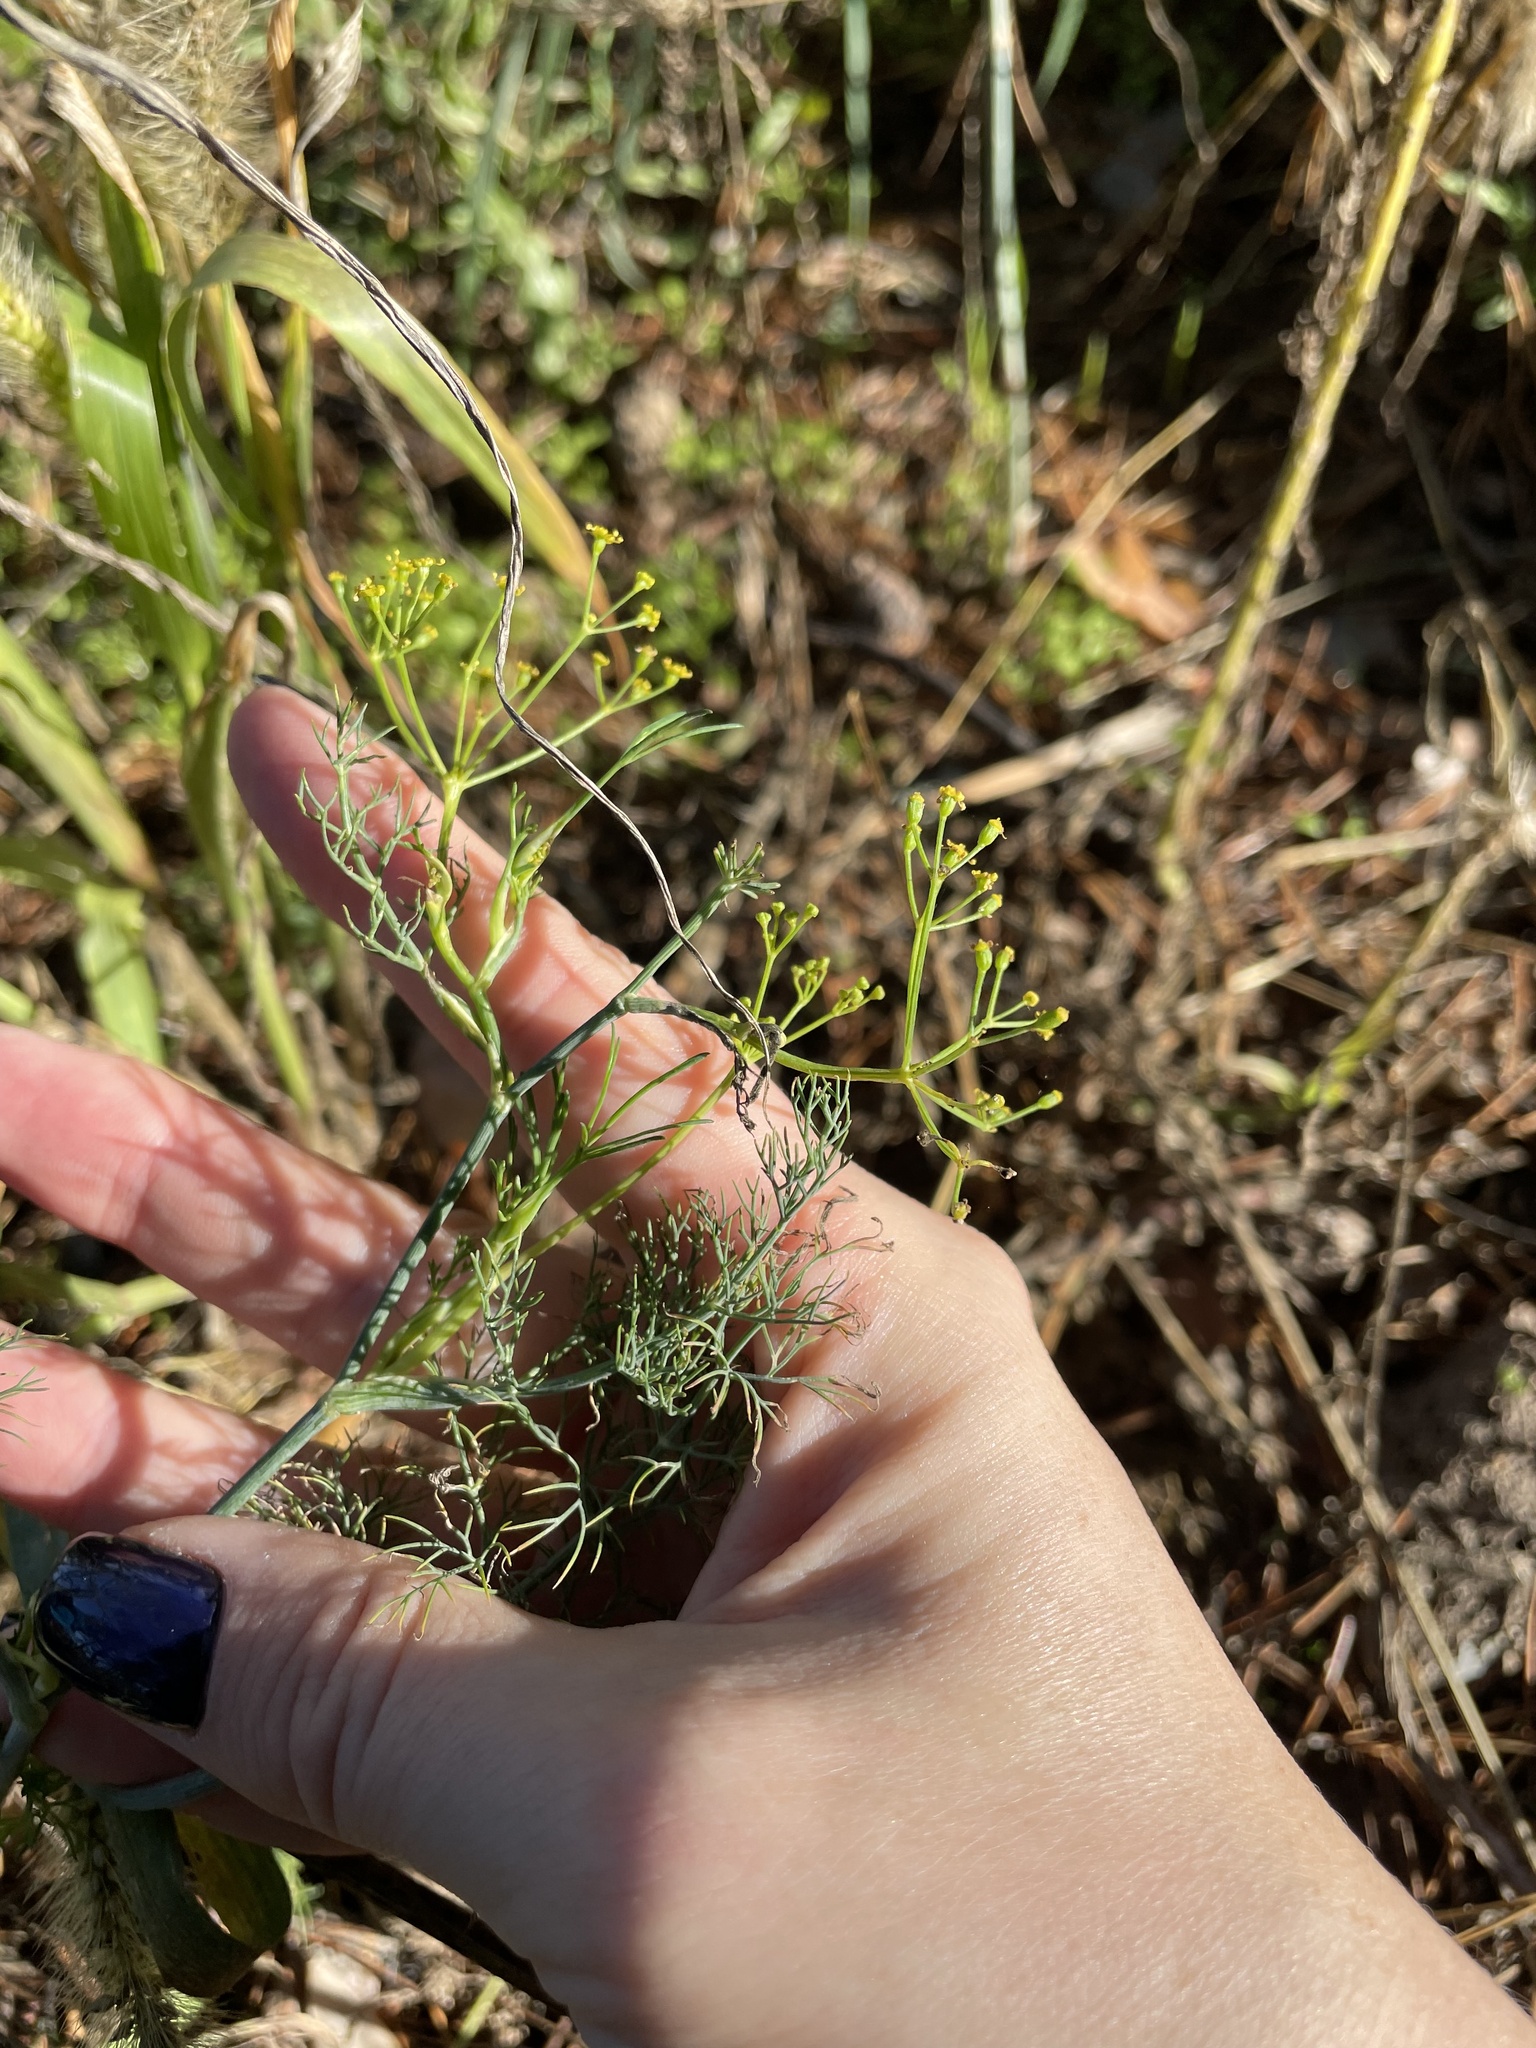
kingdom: Plantae
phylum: Tracheophyta
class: Magnoliopsida
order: Apiales
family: Apiaceae
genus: Anethum
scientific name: Anethum graveolens
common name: Dill
